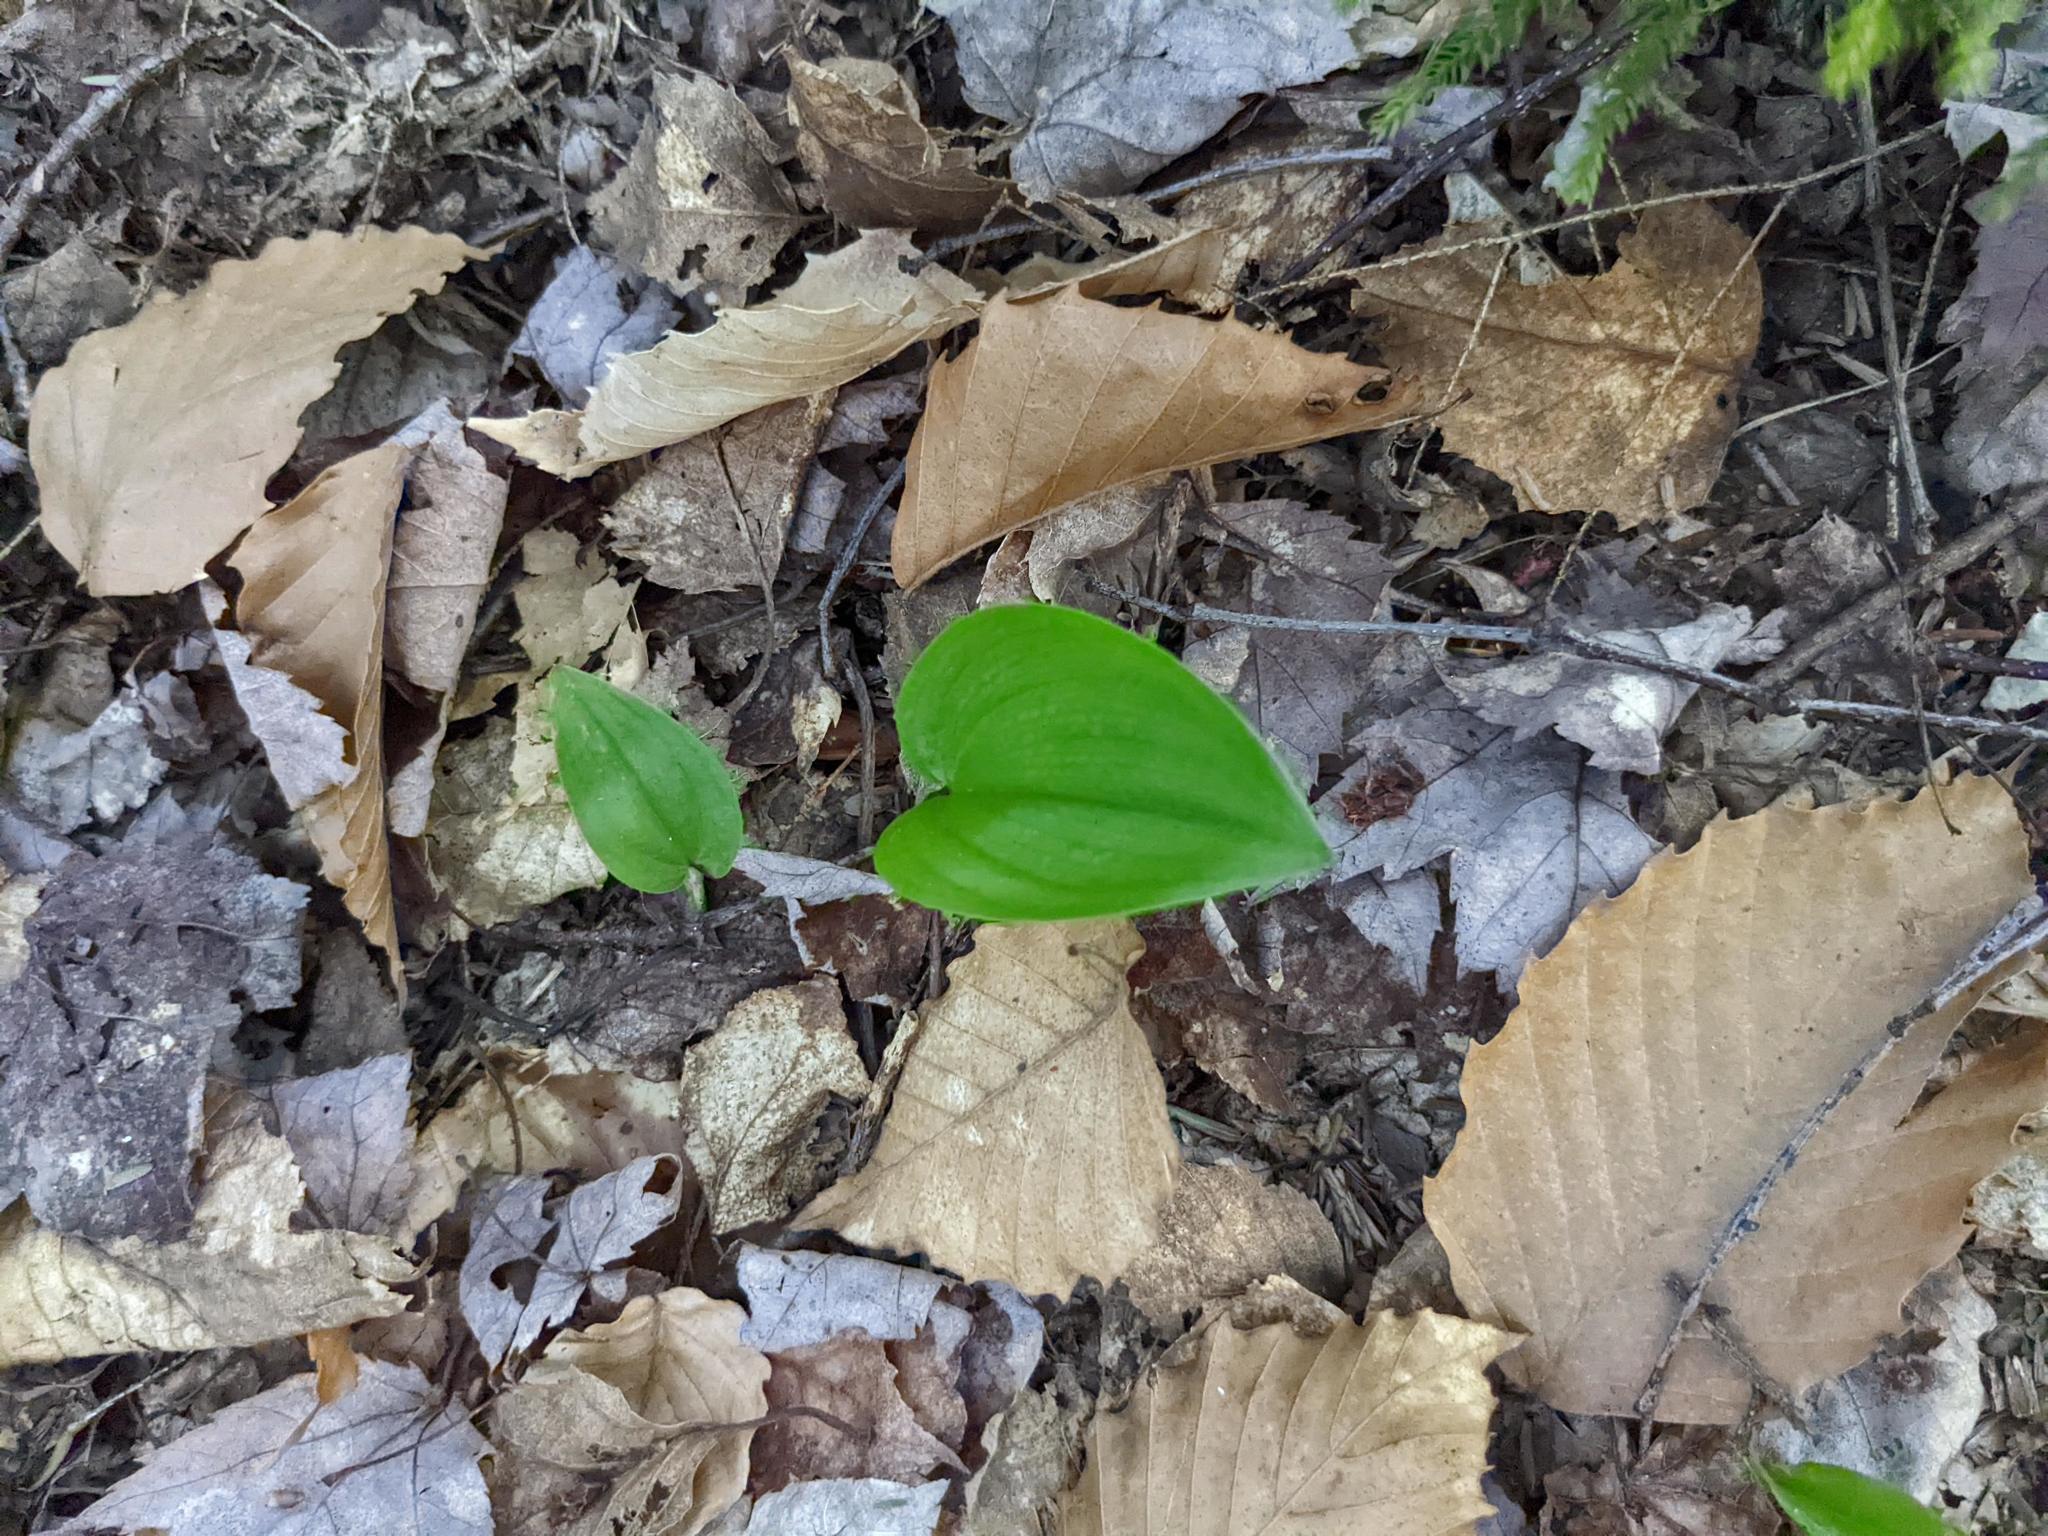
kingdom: Plantae
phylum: Tracheophyta
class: Magnoliopsida
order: Fagales
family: Fagaceae
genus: Fagus
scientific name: Fagus grandifolia
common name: American beech
